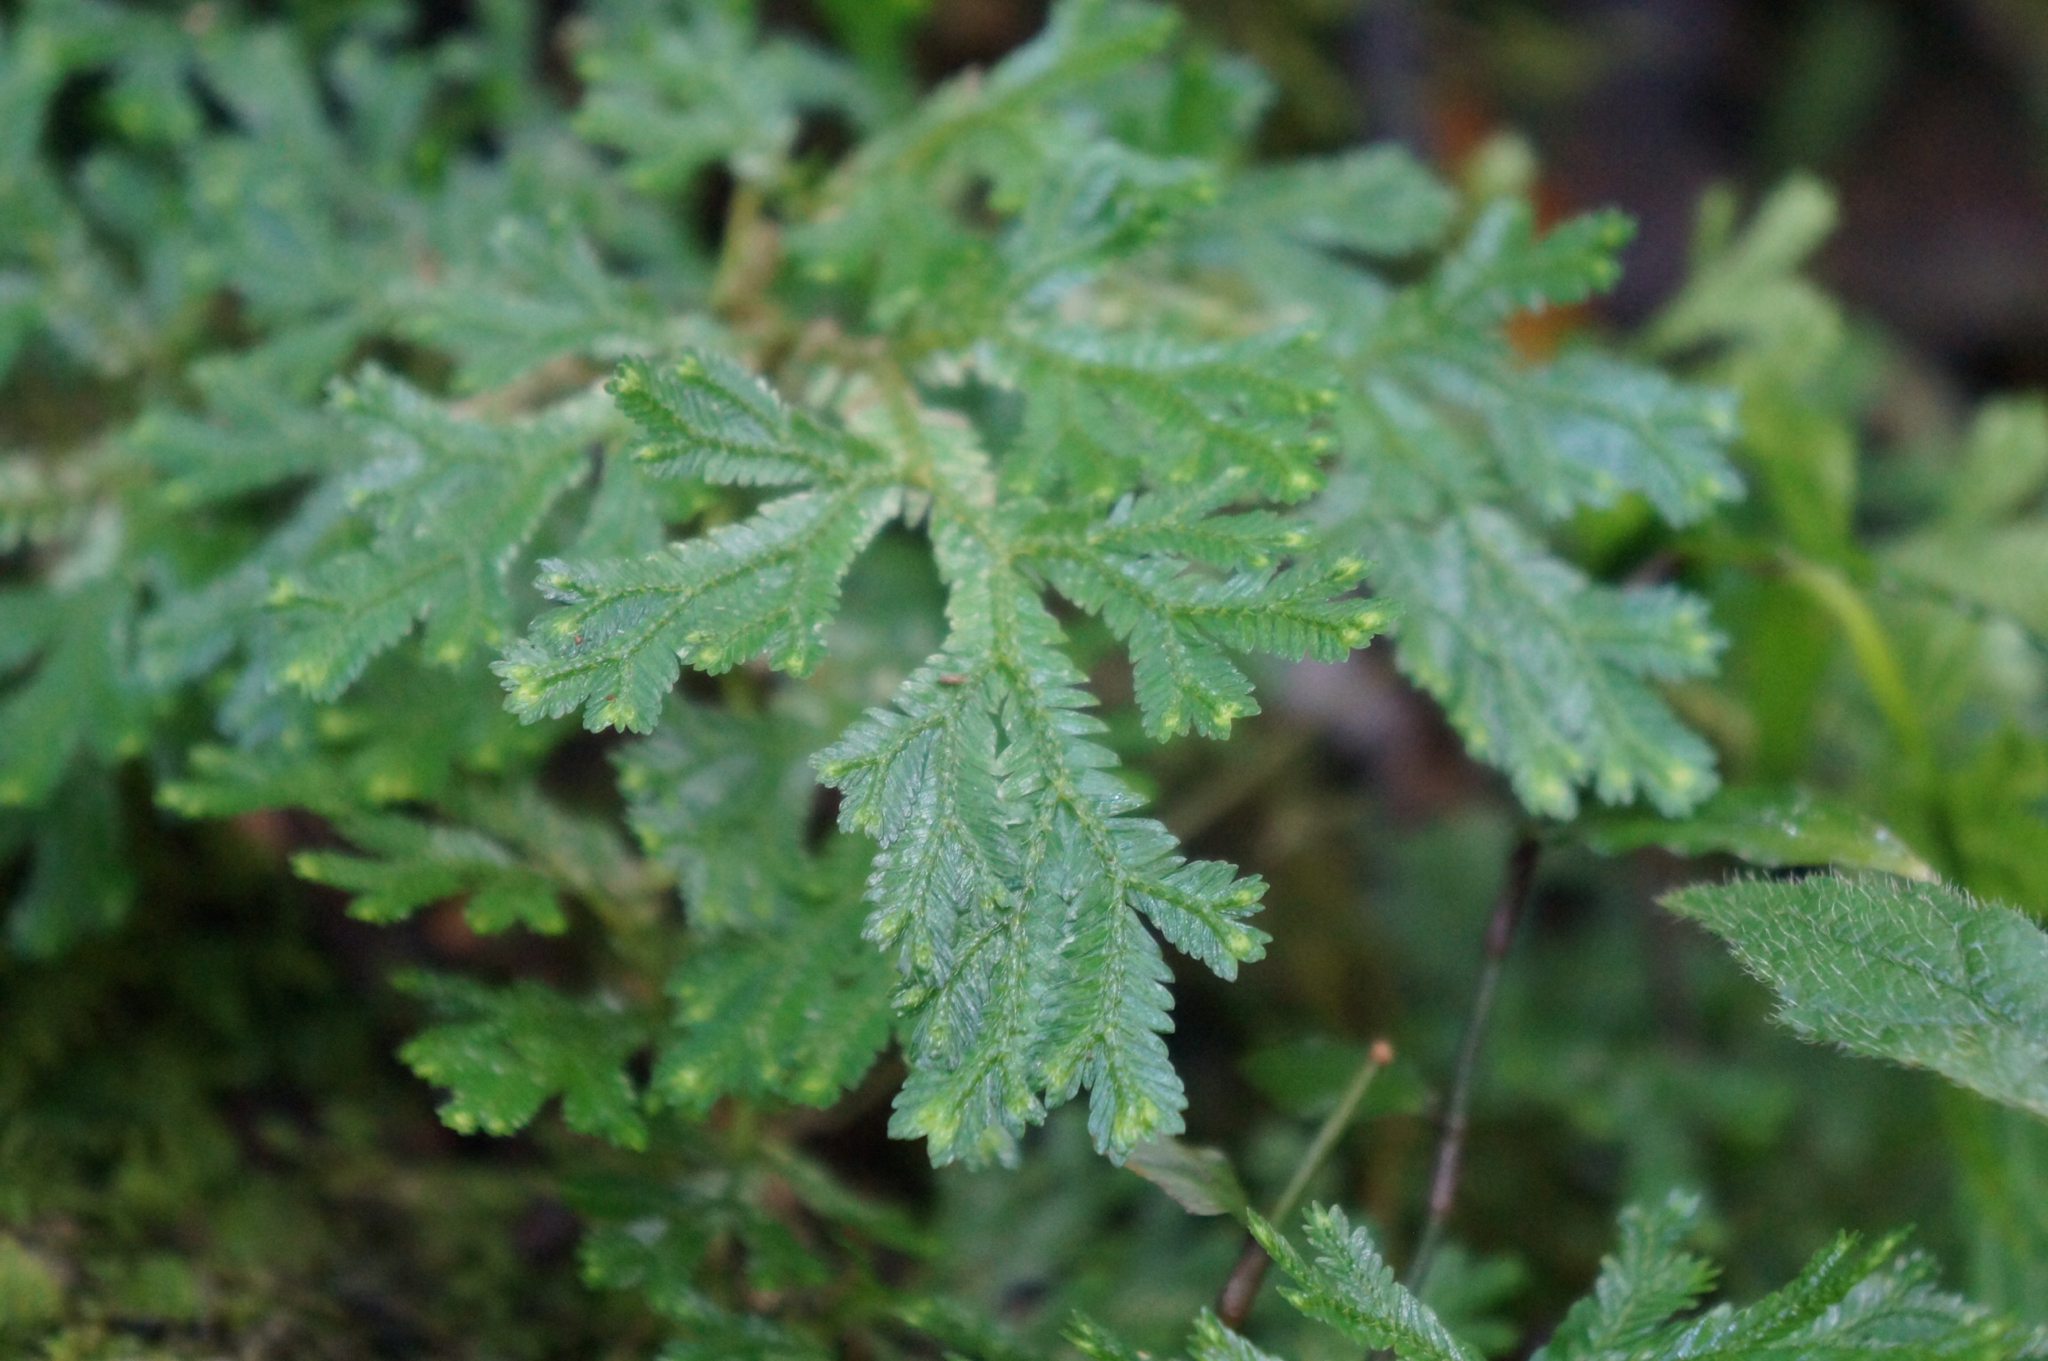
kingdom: Plantae
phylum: Tracheophyta
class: Lycopodiopsida
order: Selaginellales
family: Selaginellaceae
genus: Selaginella
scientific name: Selaginella stenophylla
